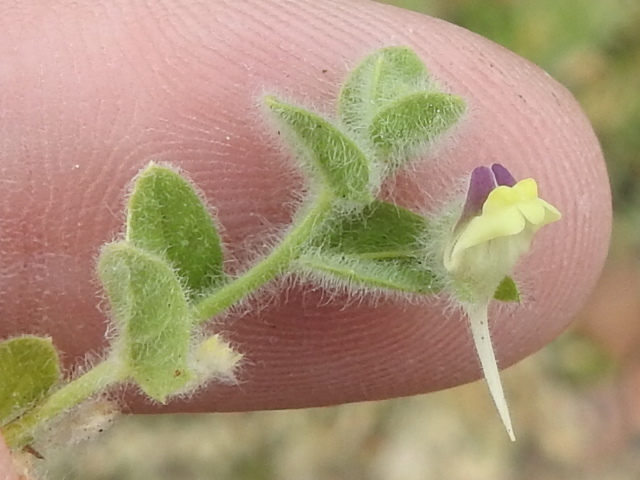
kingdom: Plantae
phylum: Tracheophyta
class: Magnoliopsida
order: Lamiales
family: Plantaginaceae
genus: Kickxia
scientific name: Kickxia elatine
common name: Sharp-leaved fluellen
